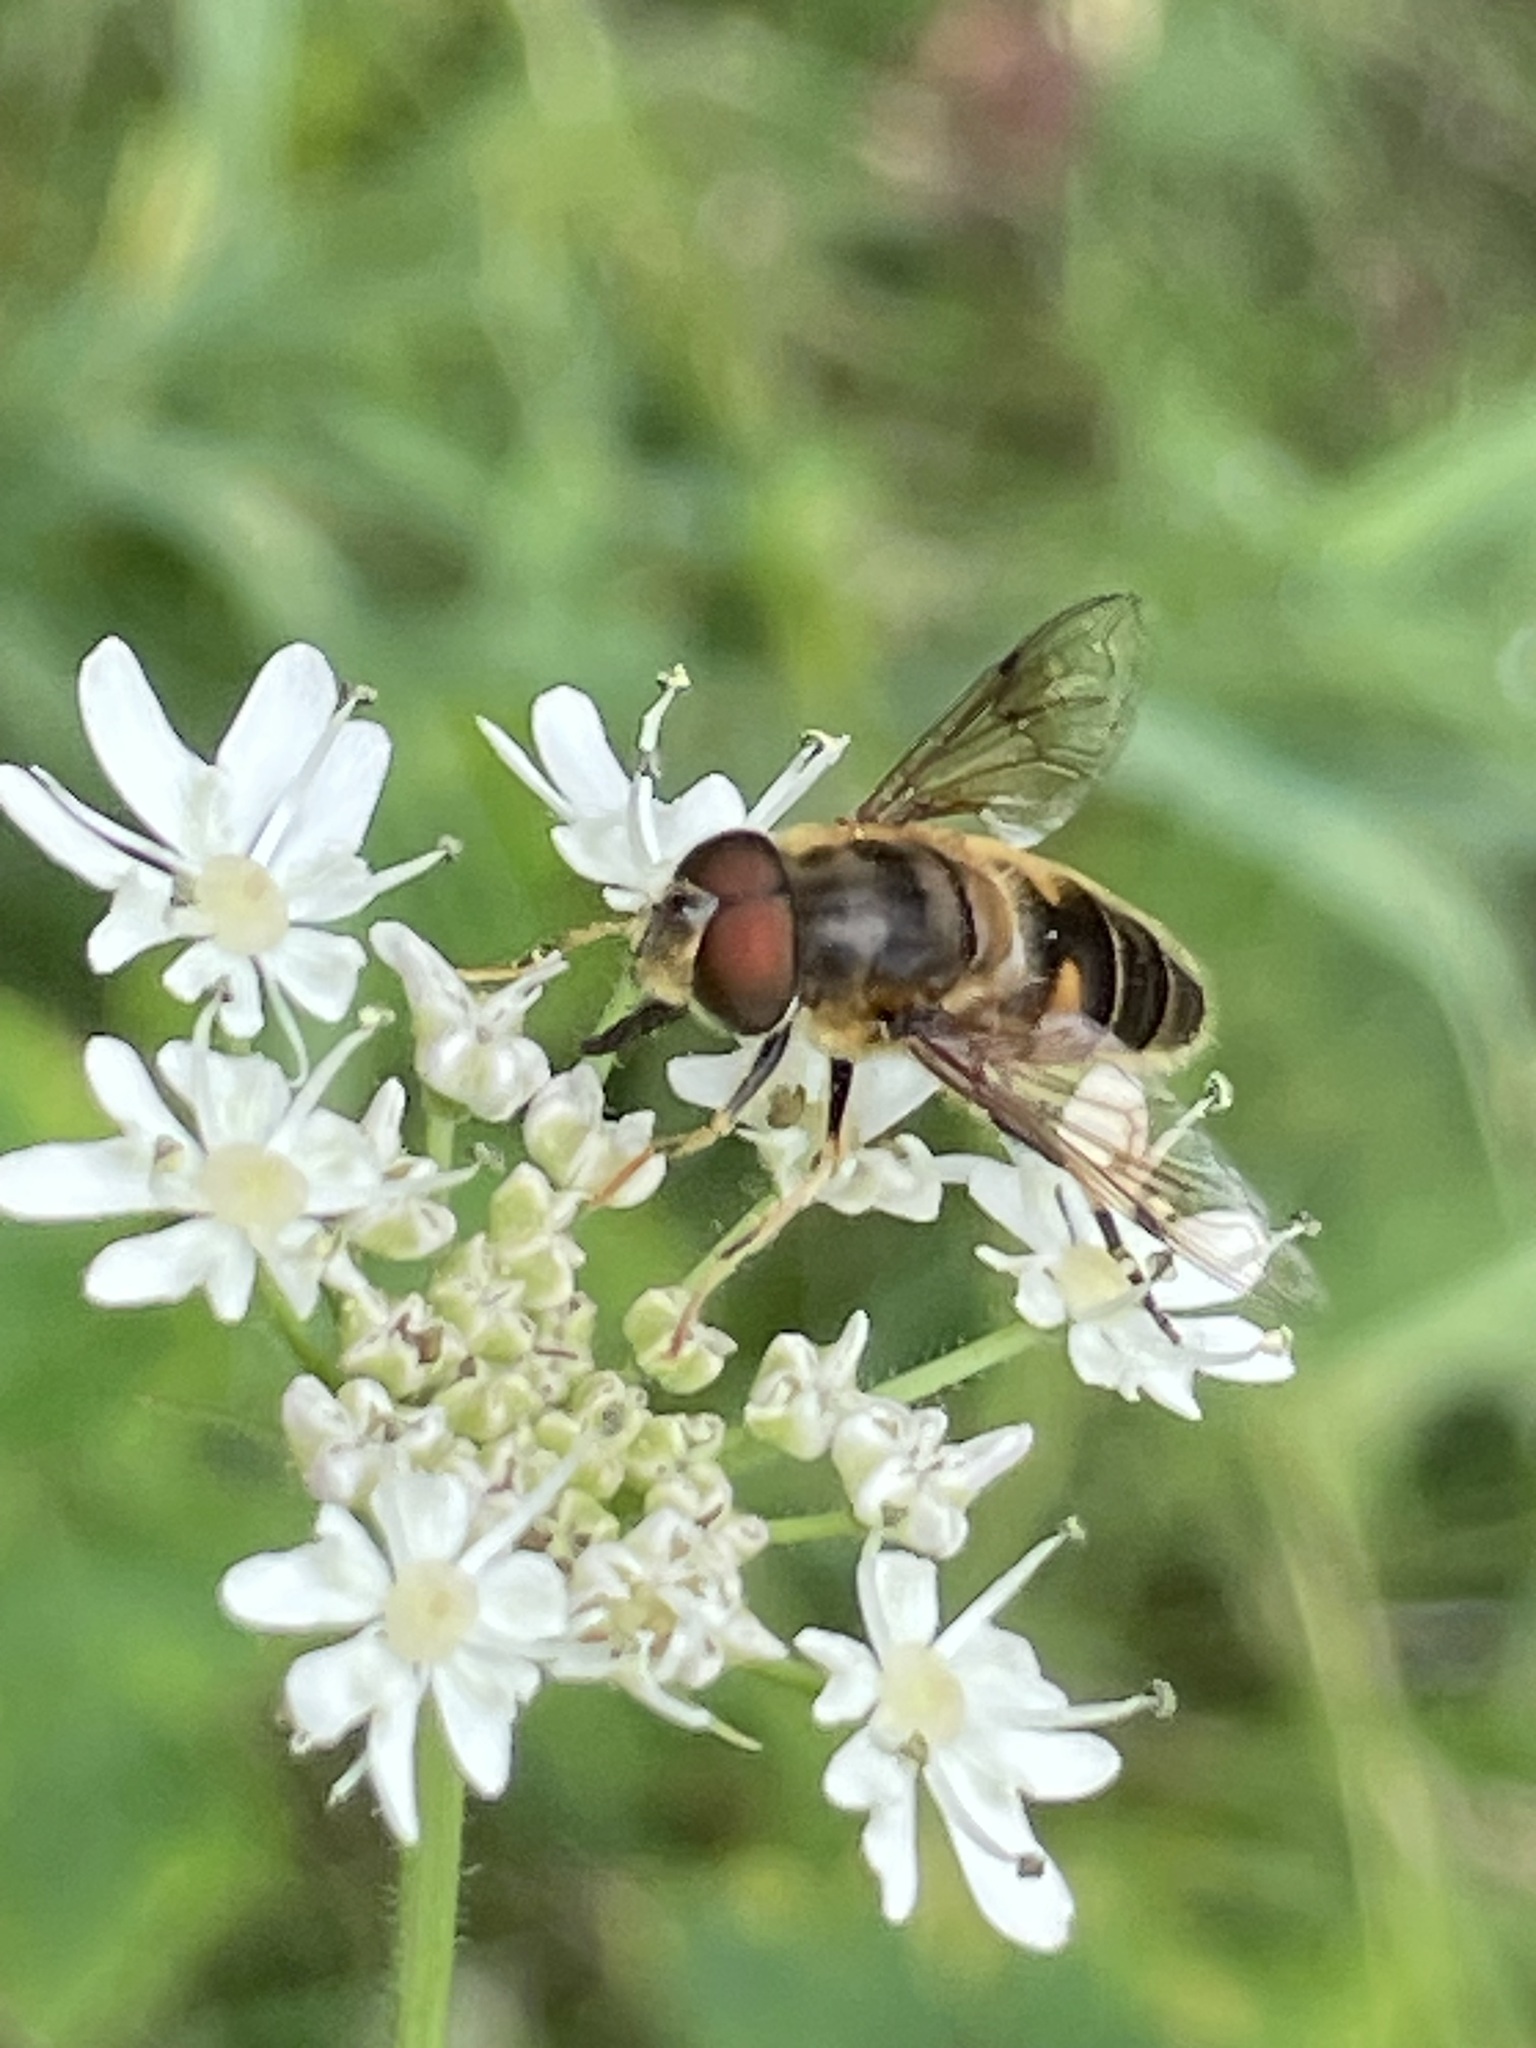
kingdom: Animalia
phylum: Arthropoda
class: Insecta
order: Diptera
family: Syrphidae
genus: Eristalis
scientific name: Eristalis pertinax
